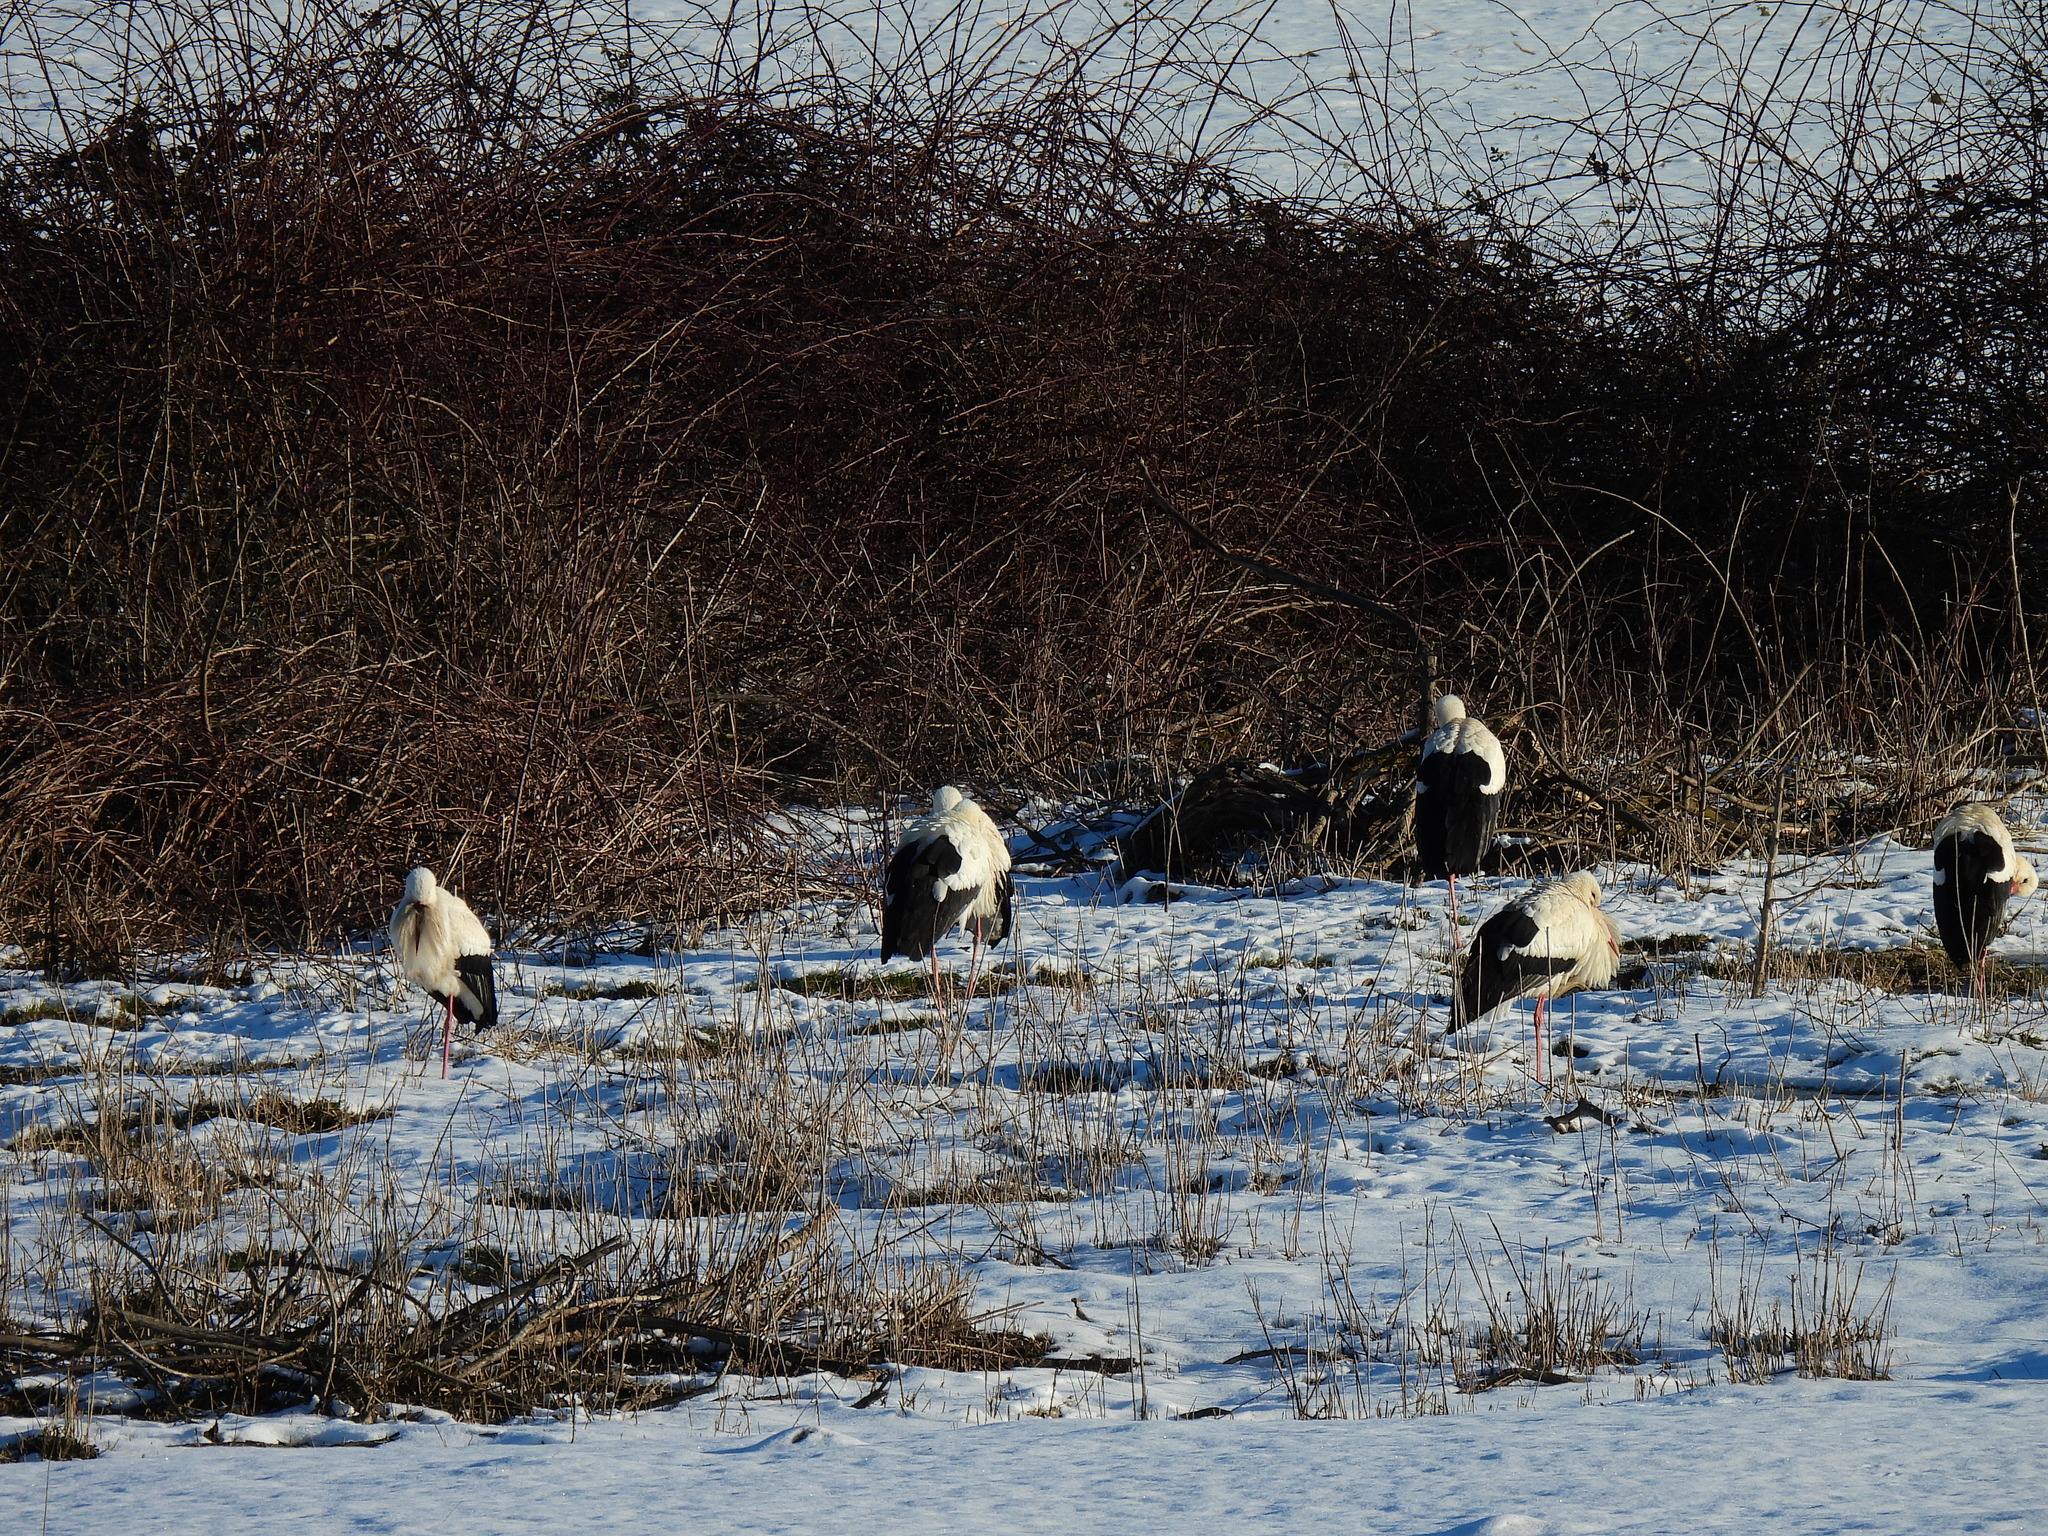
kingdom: Animalia
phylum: Chordata
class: Aves
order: Ciconiiformes
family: Ciconiidae
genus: Ciconia
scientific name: Ciconia ciconia
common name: White stork
